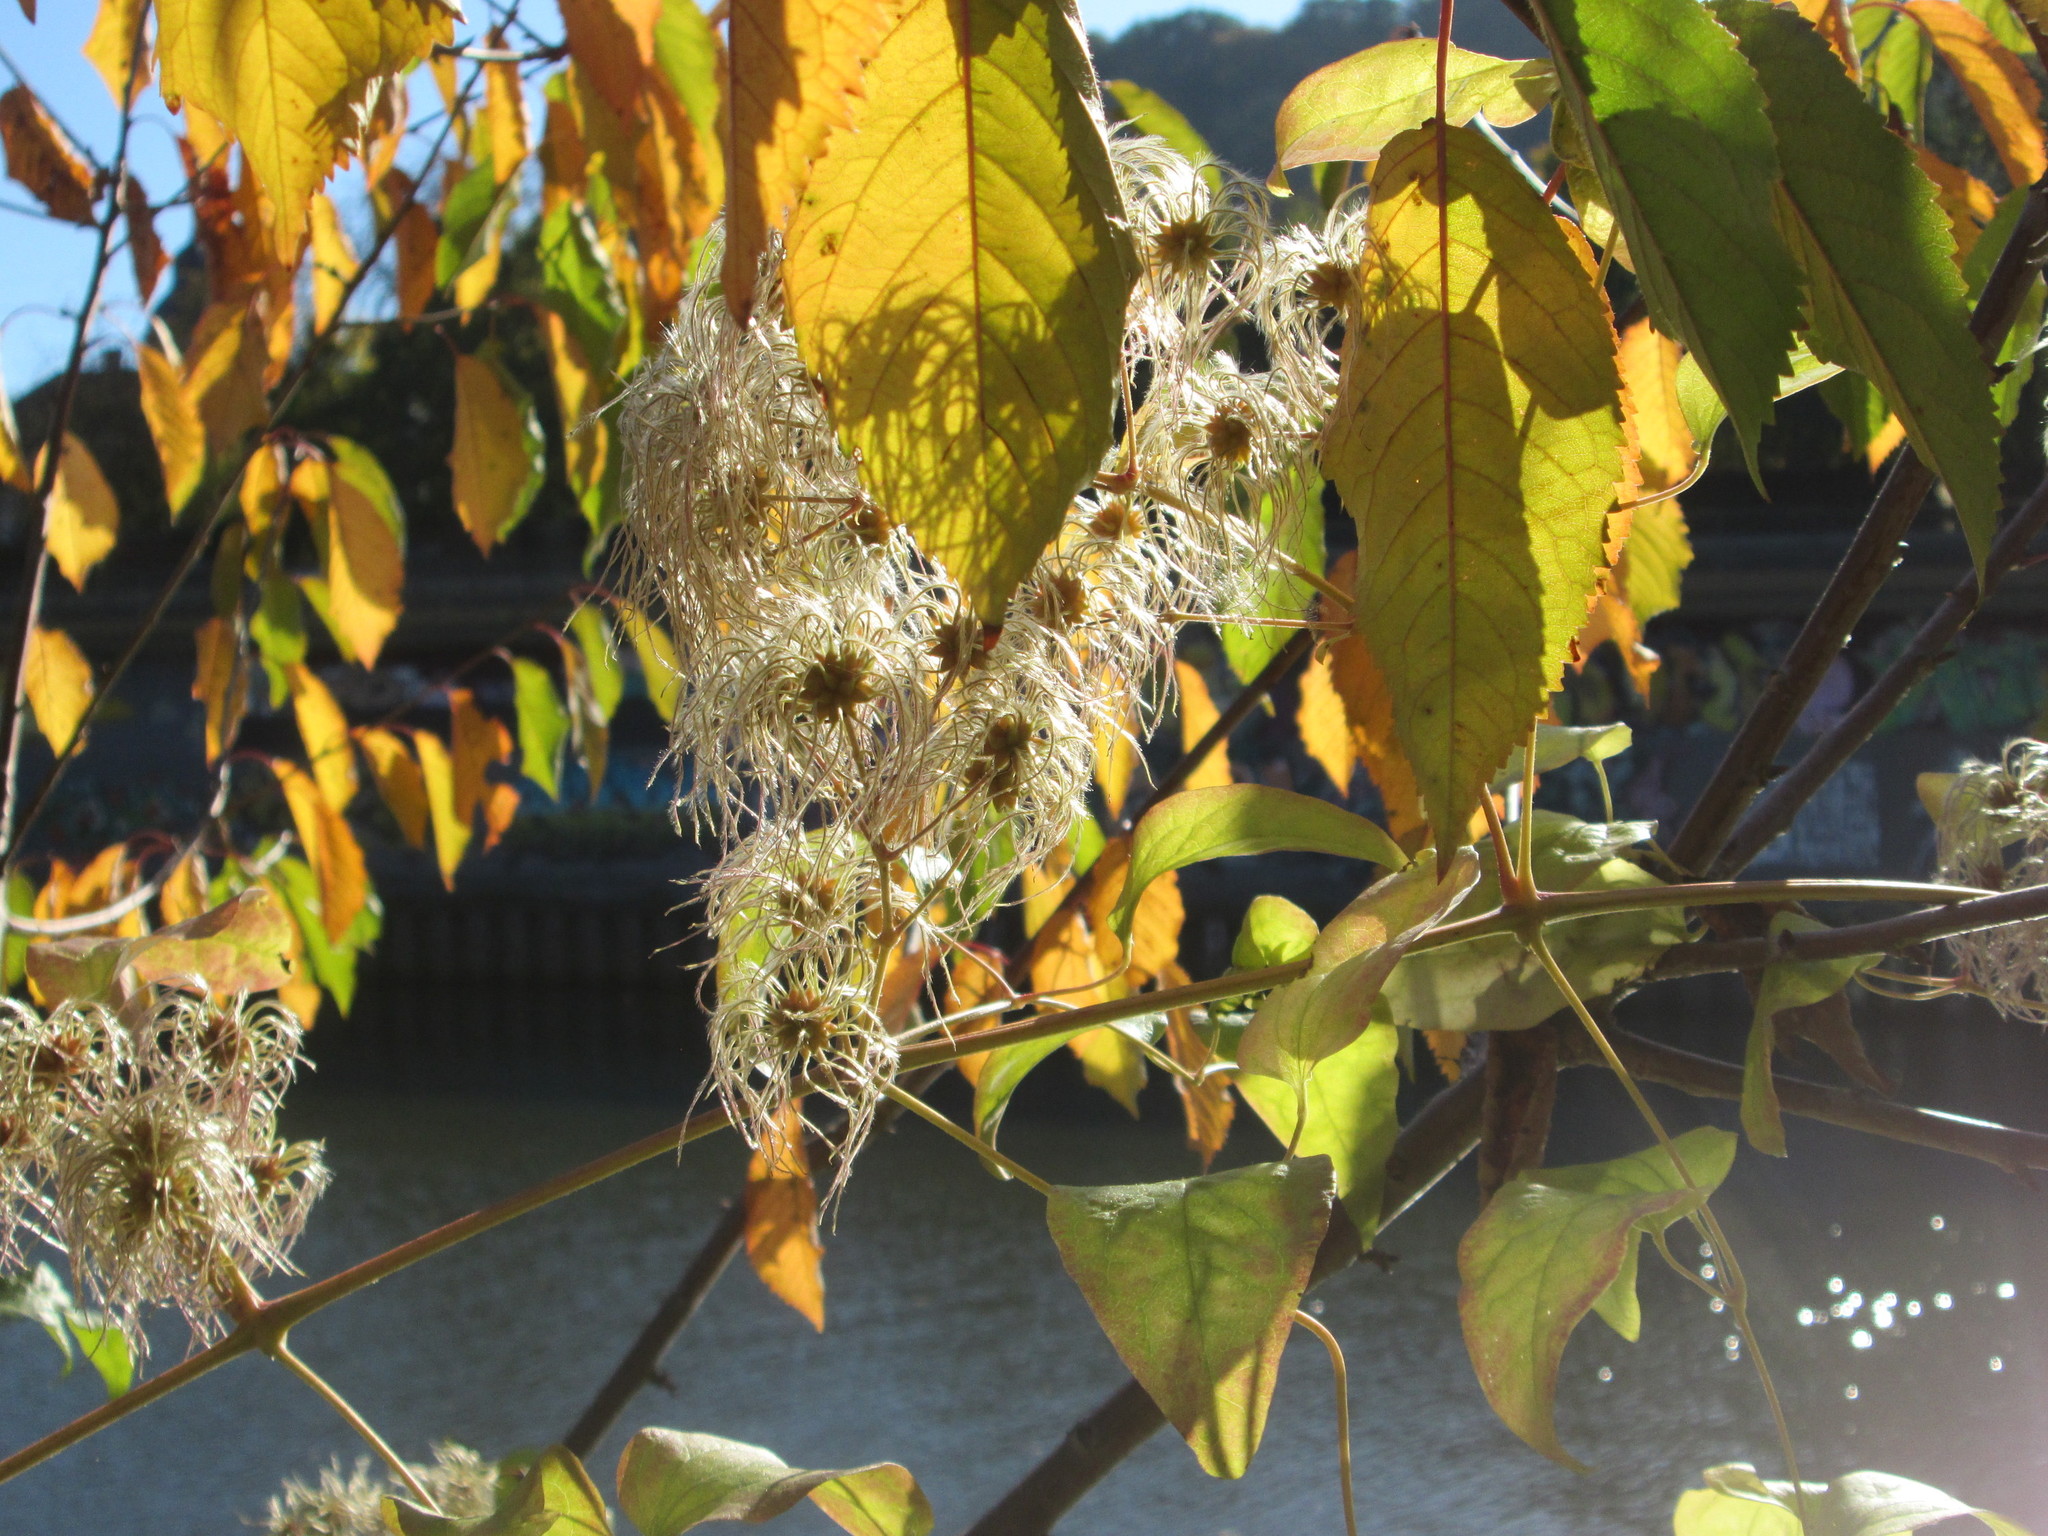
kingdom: Plantae
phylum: Tracheophyta
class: Magnoliopsida
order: Ranunculales
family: Ranunculaceae
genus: Clematis
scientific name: Clematis vitalba
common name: Evergreen clematis
